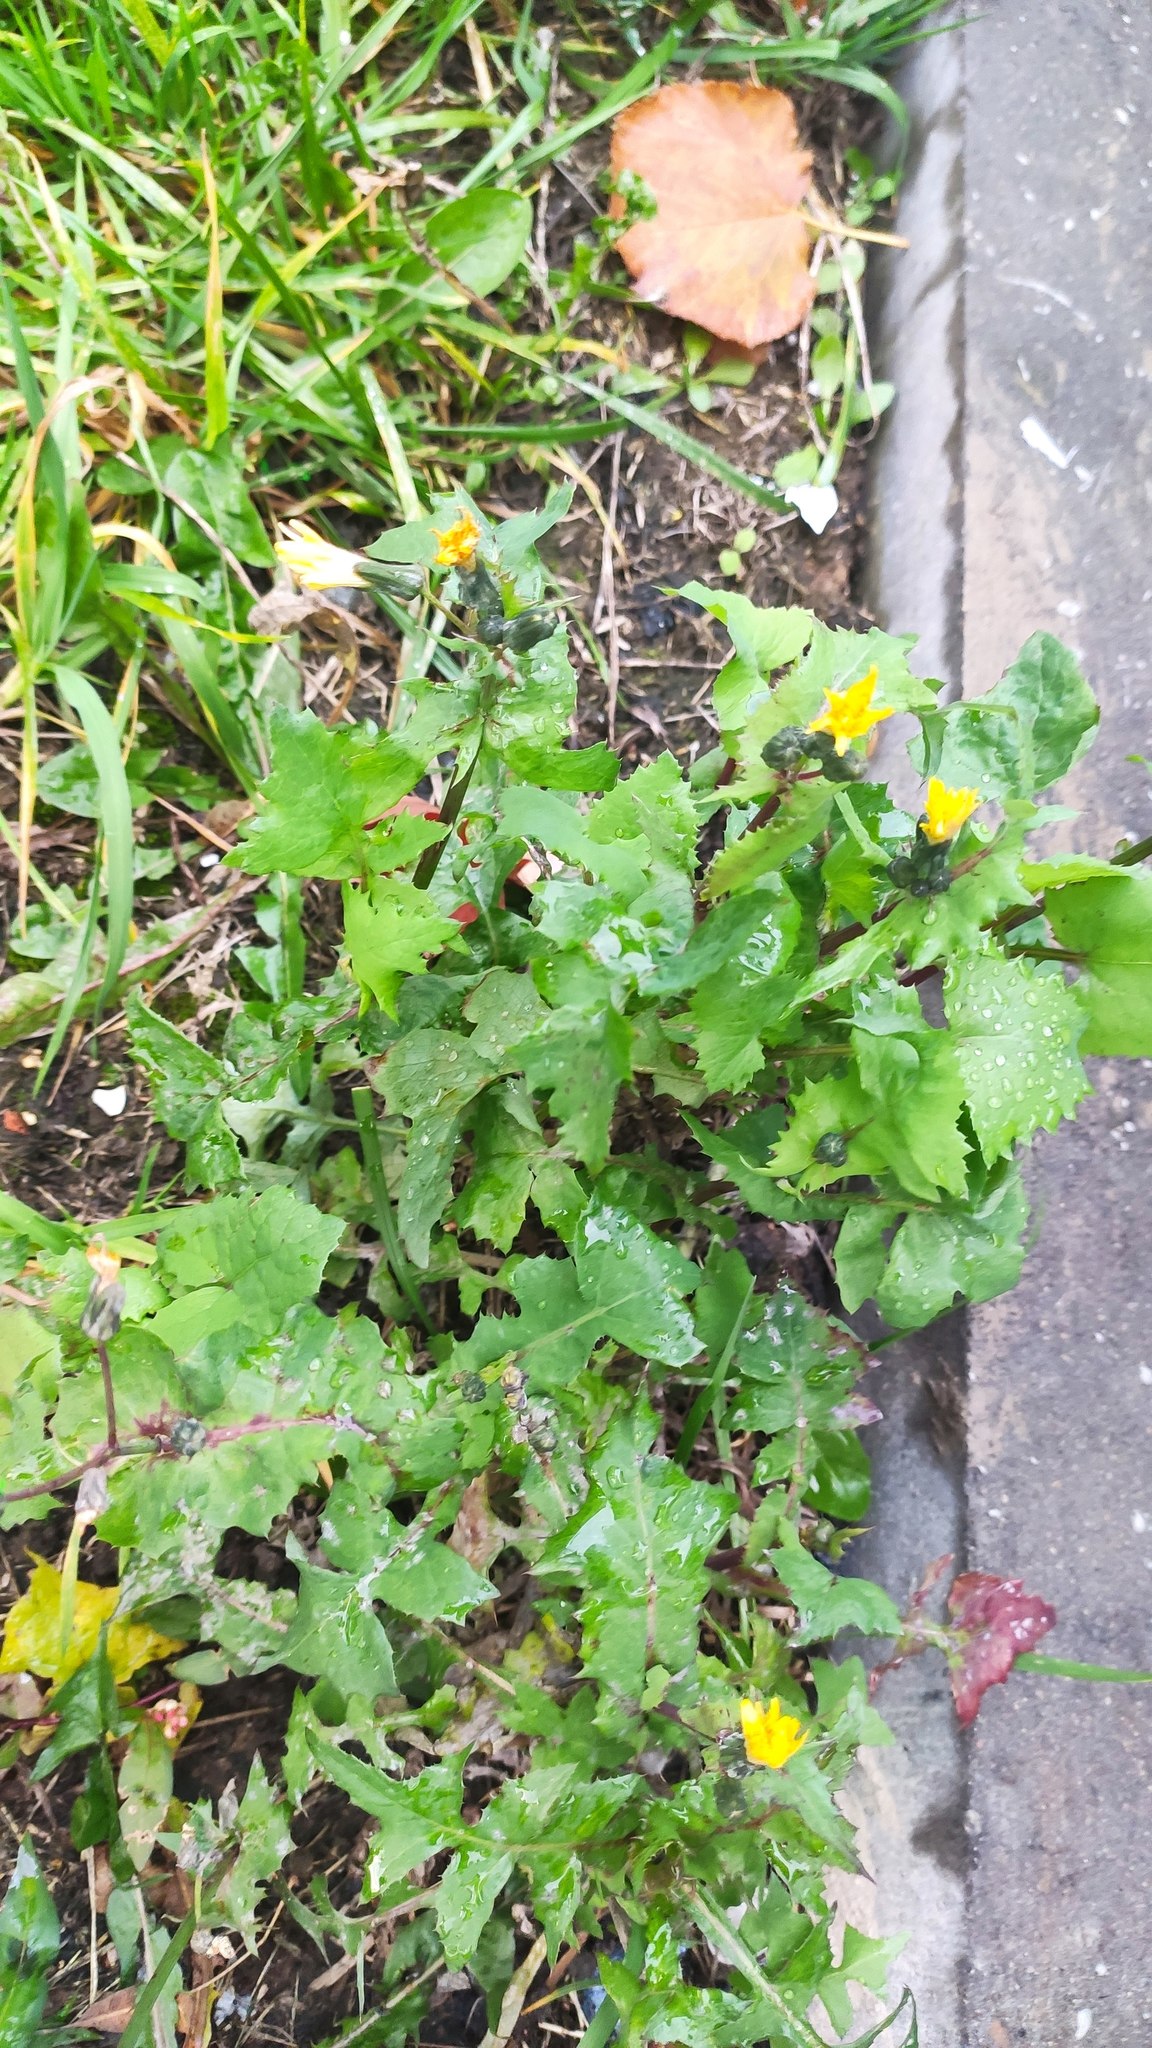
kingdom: Plantae
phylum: Tracheophyta
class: Magnoliopsida
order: Asterales
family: Asteraceae
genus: Sonchus
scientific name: Sonchus oleraceus
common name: Common sowthistle
